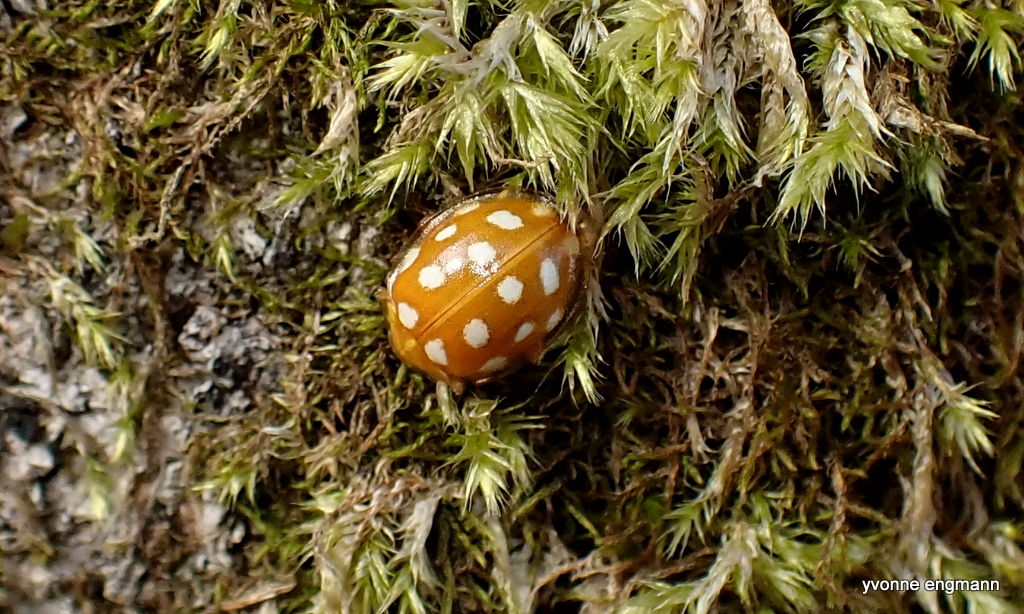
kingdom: Animalia
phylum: Arthropoda
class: Insecta
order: Coleoptera
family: Coccinellidae
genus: Halyzia
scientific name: Halyzia sedecimguttata
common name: Orange ladybird
